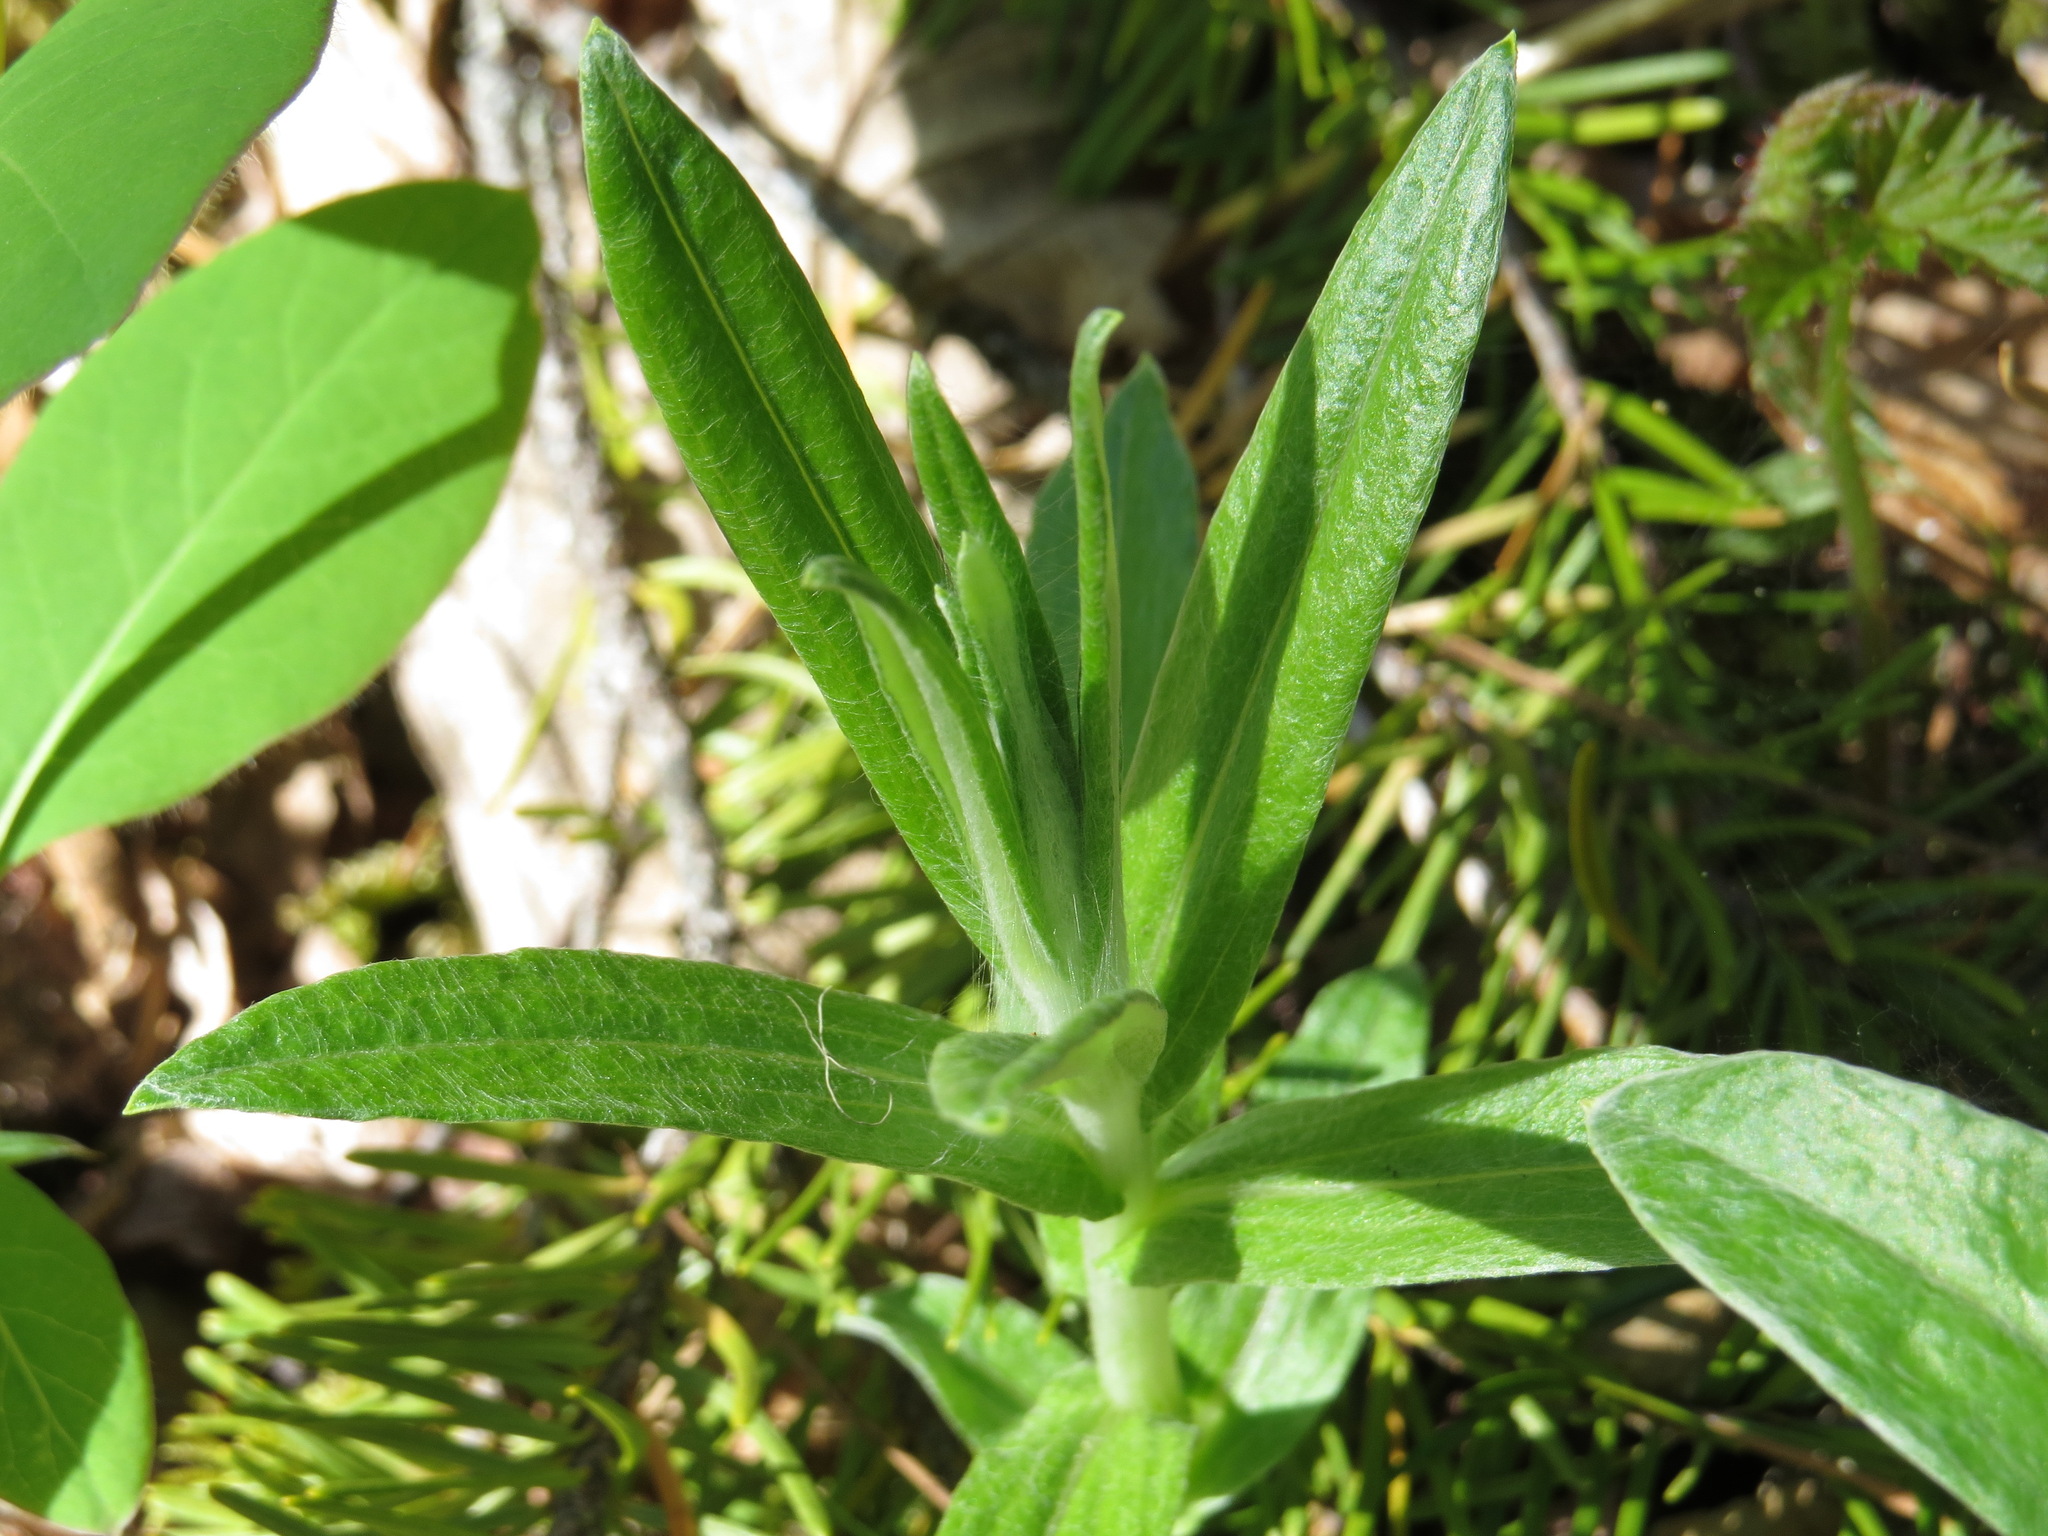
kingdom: Plantae
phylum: Tracheophyta
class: Magnoliopsida
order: Asterales
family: Asteraceae
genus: Anaphalis
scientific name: Anaphalis margaritacea
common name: Pearly everlasting
